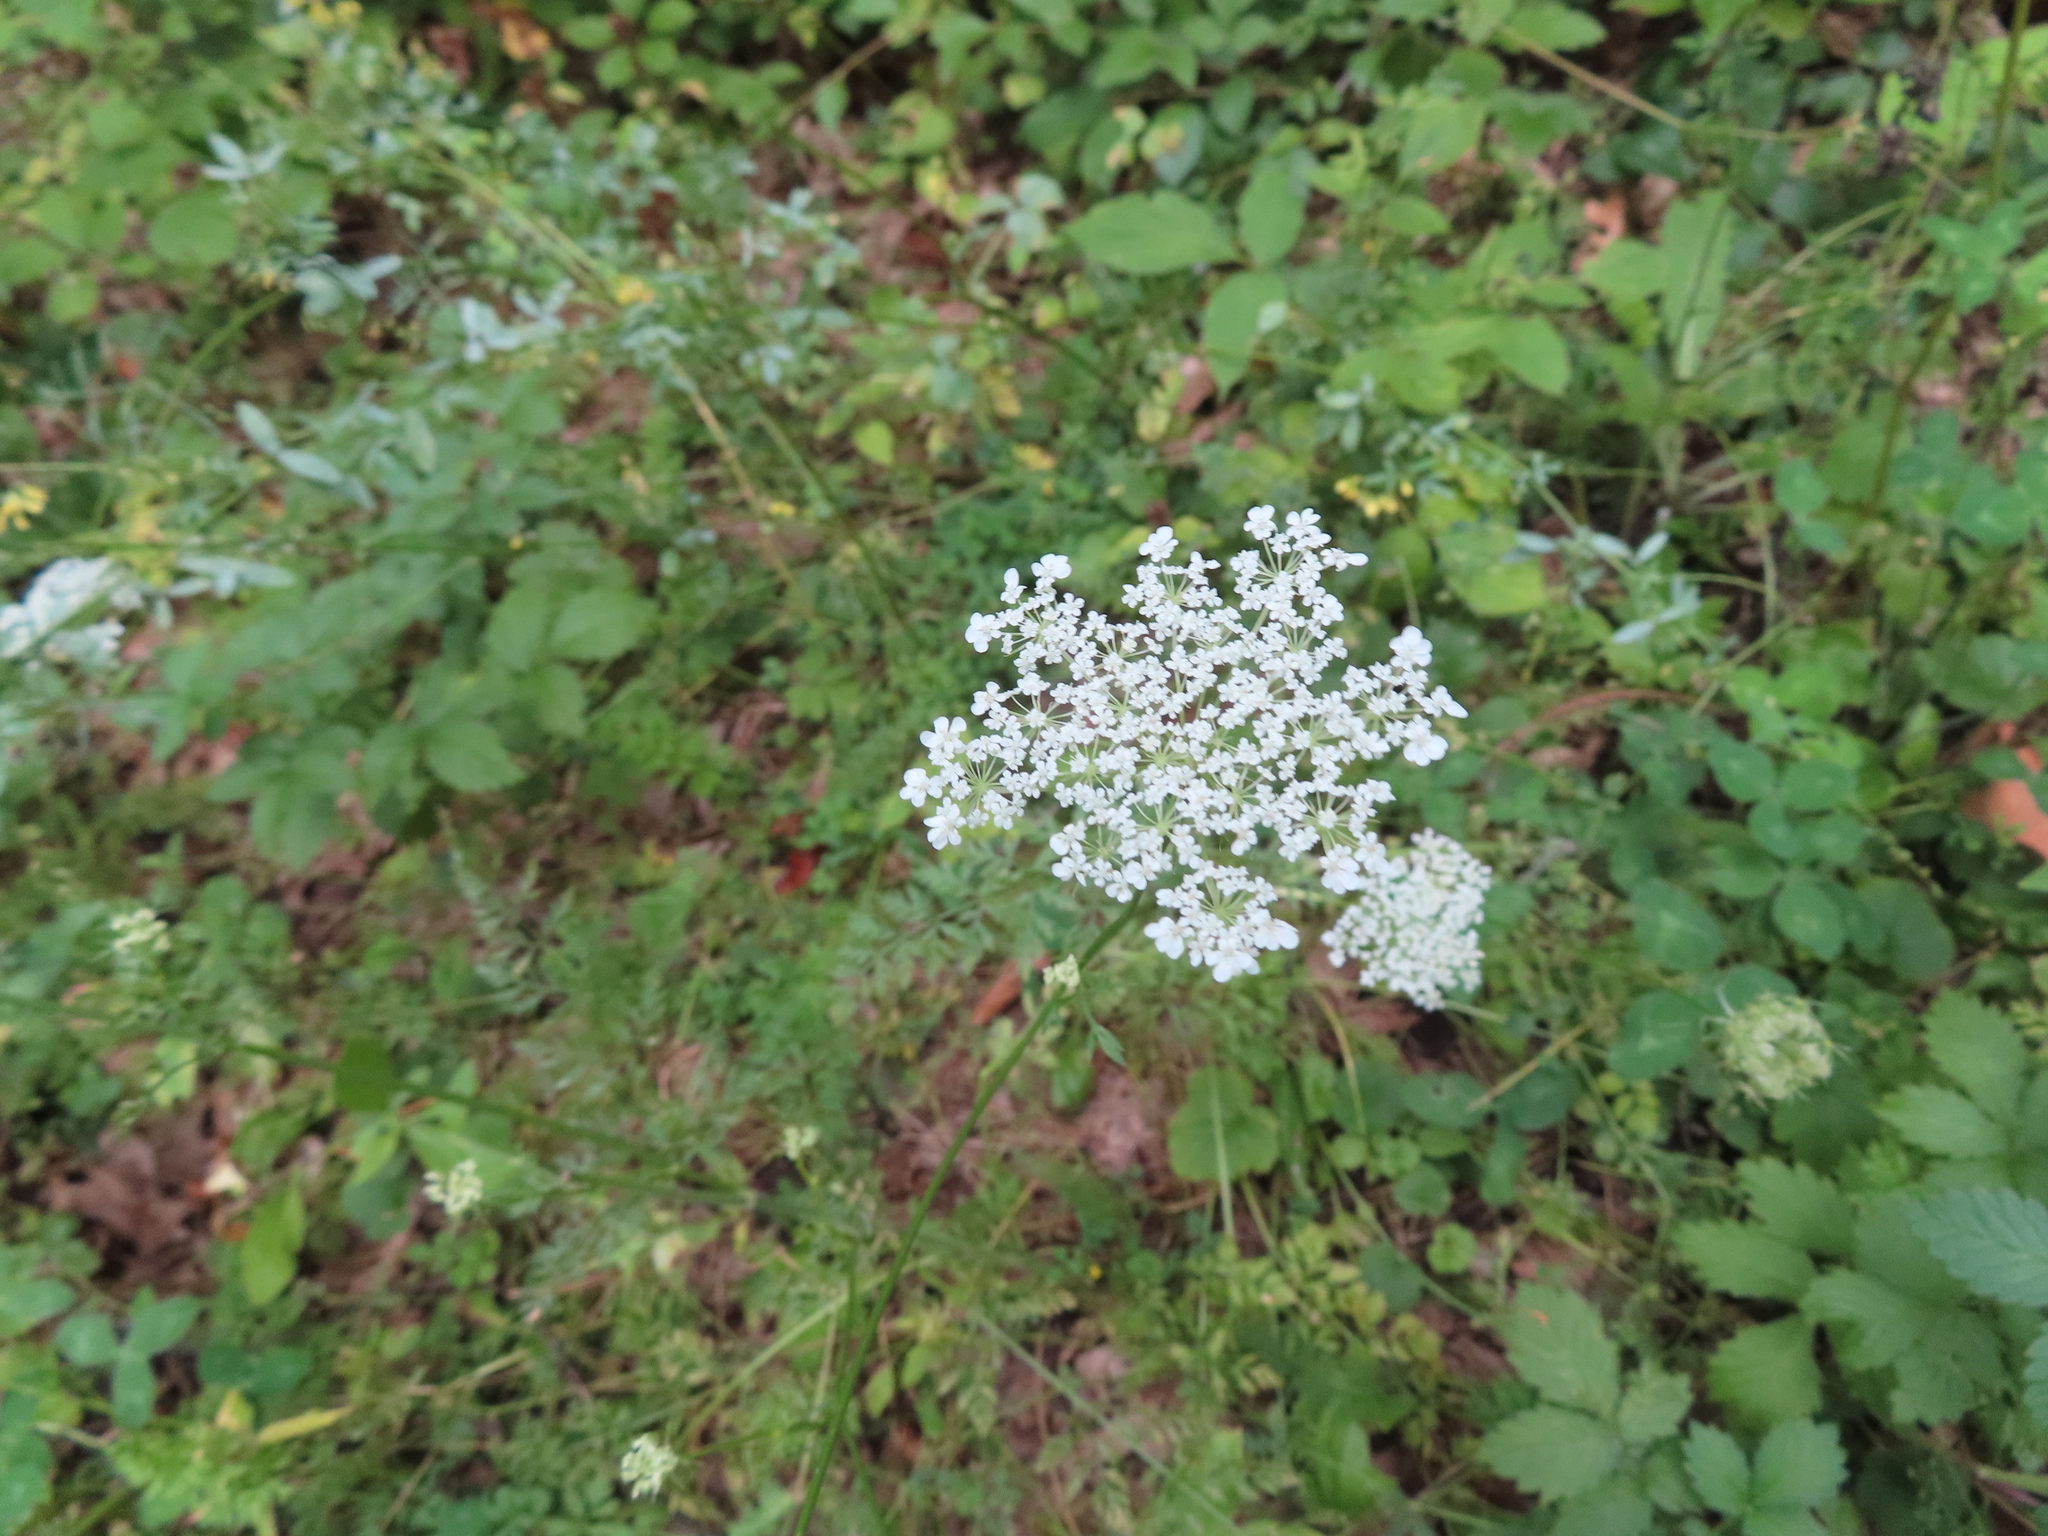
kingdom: Plantae
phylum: Tracheophyta
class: Magnoliopsida
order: Apiales
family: Apiaceae
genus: Daucus
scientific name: Daucus carota
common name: Wild carrot
